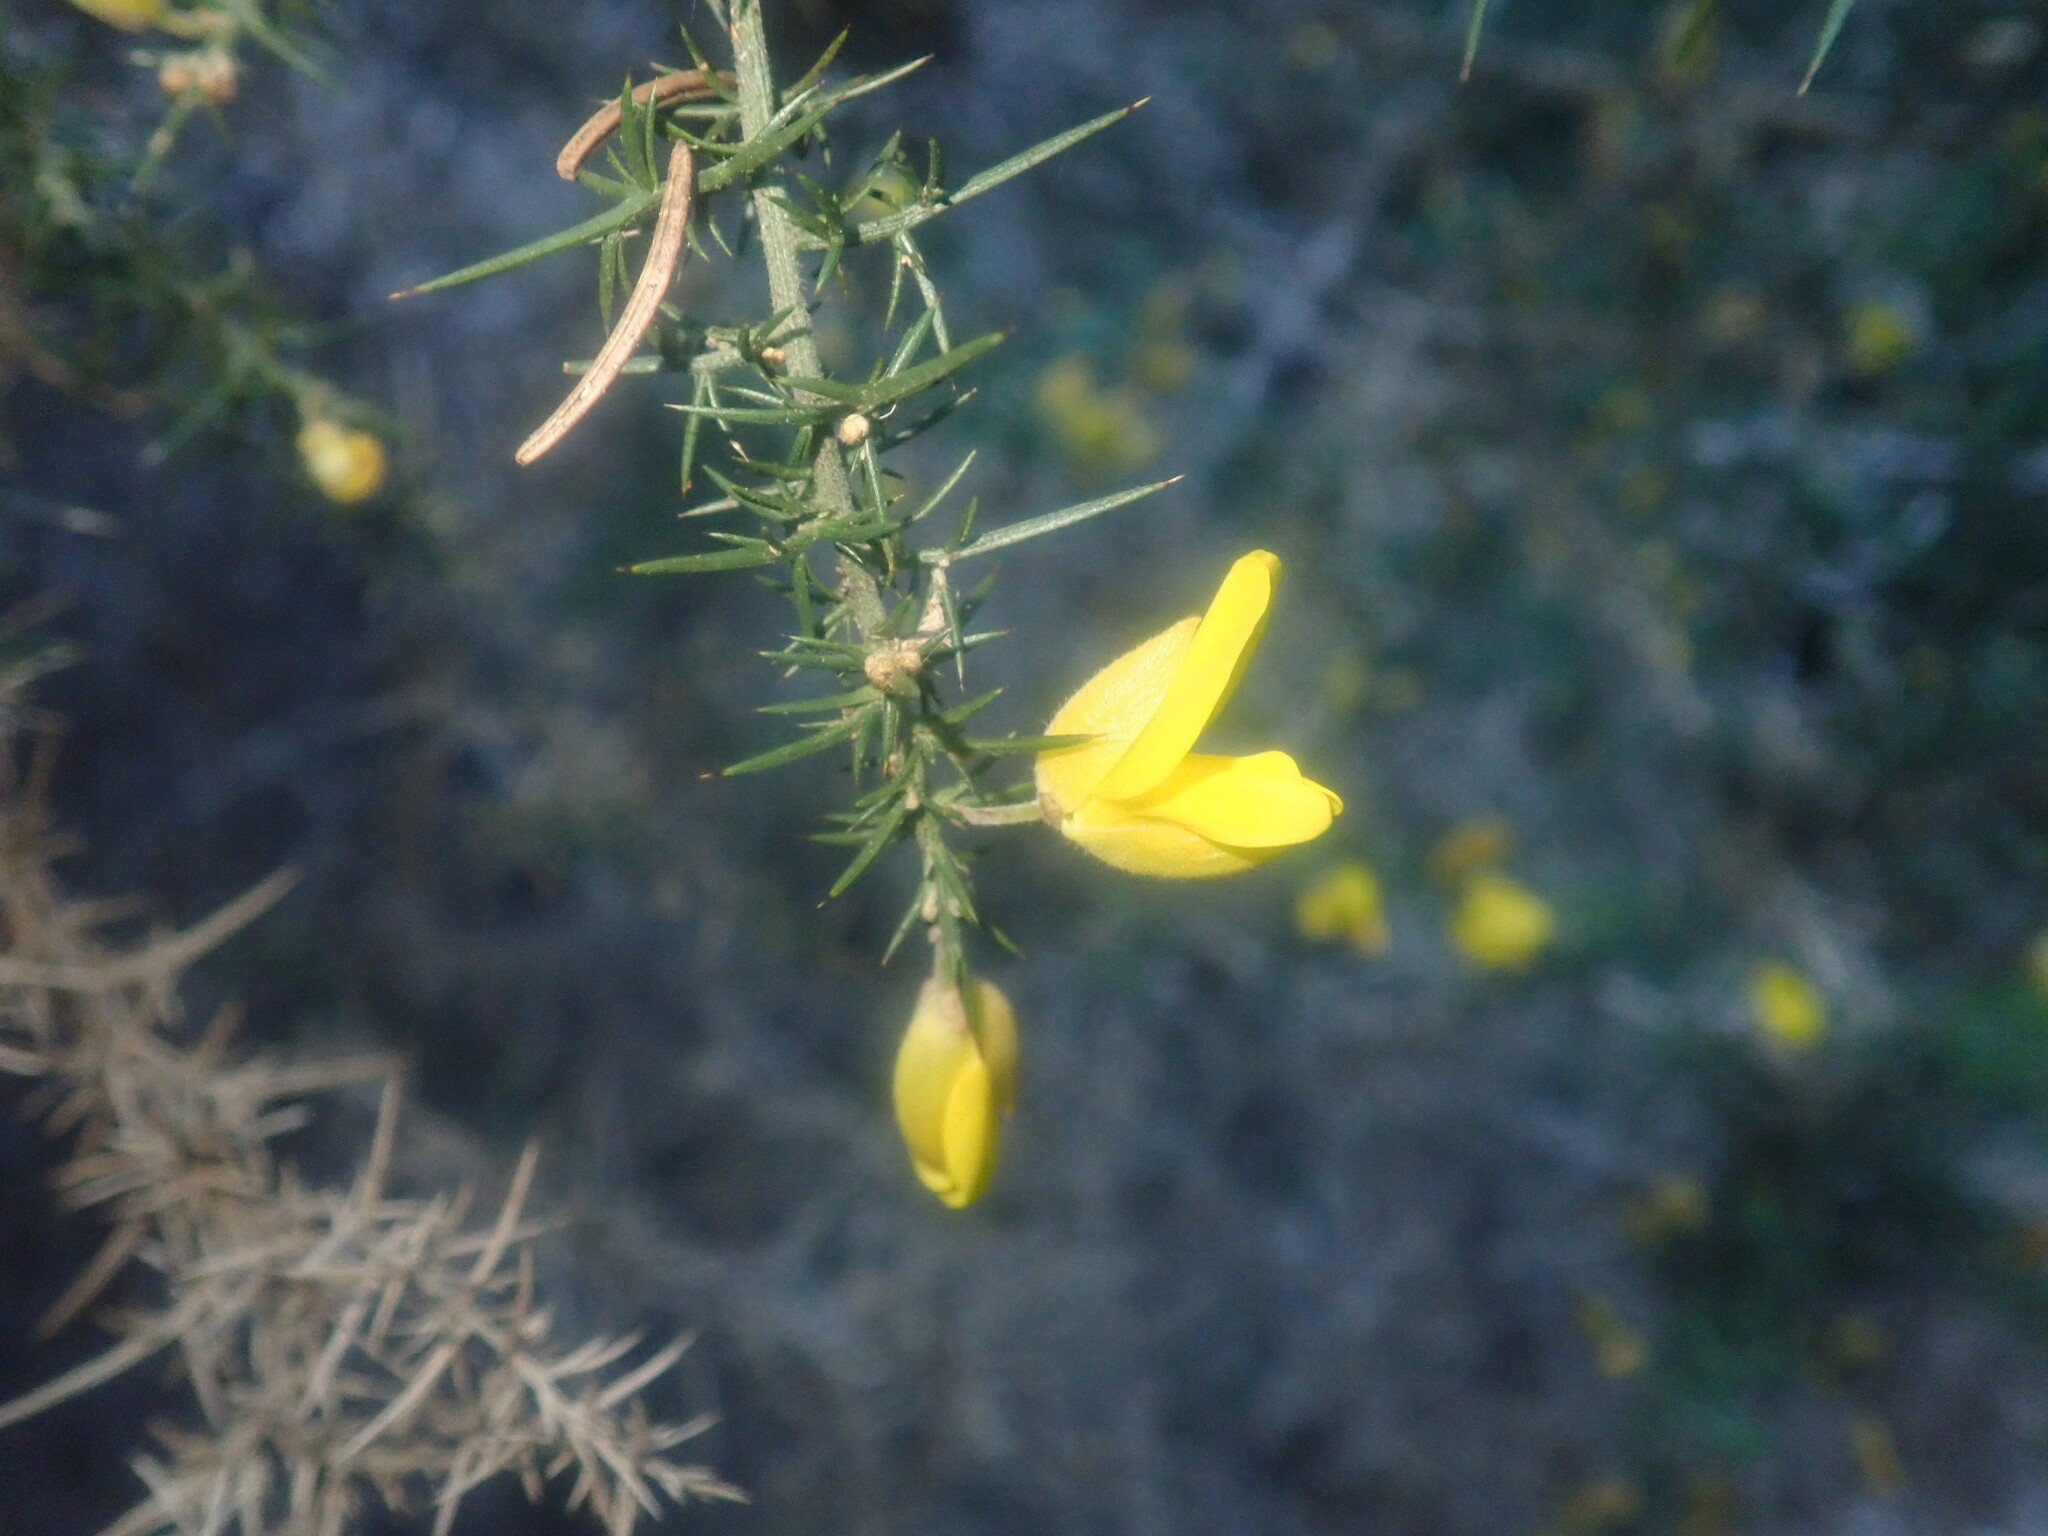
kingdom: Plantae
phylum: Tracheophyta
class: Magnoliopsida
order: Fabales
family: Fabaceae
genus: Ulex
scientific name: Ulex europaeus
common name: Common gorse
